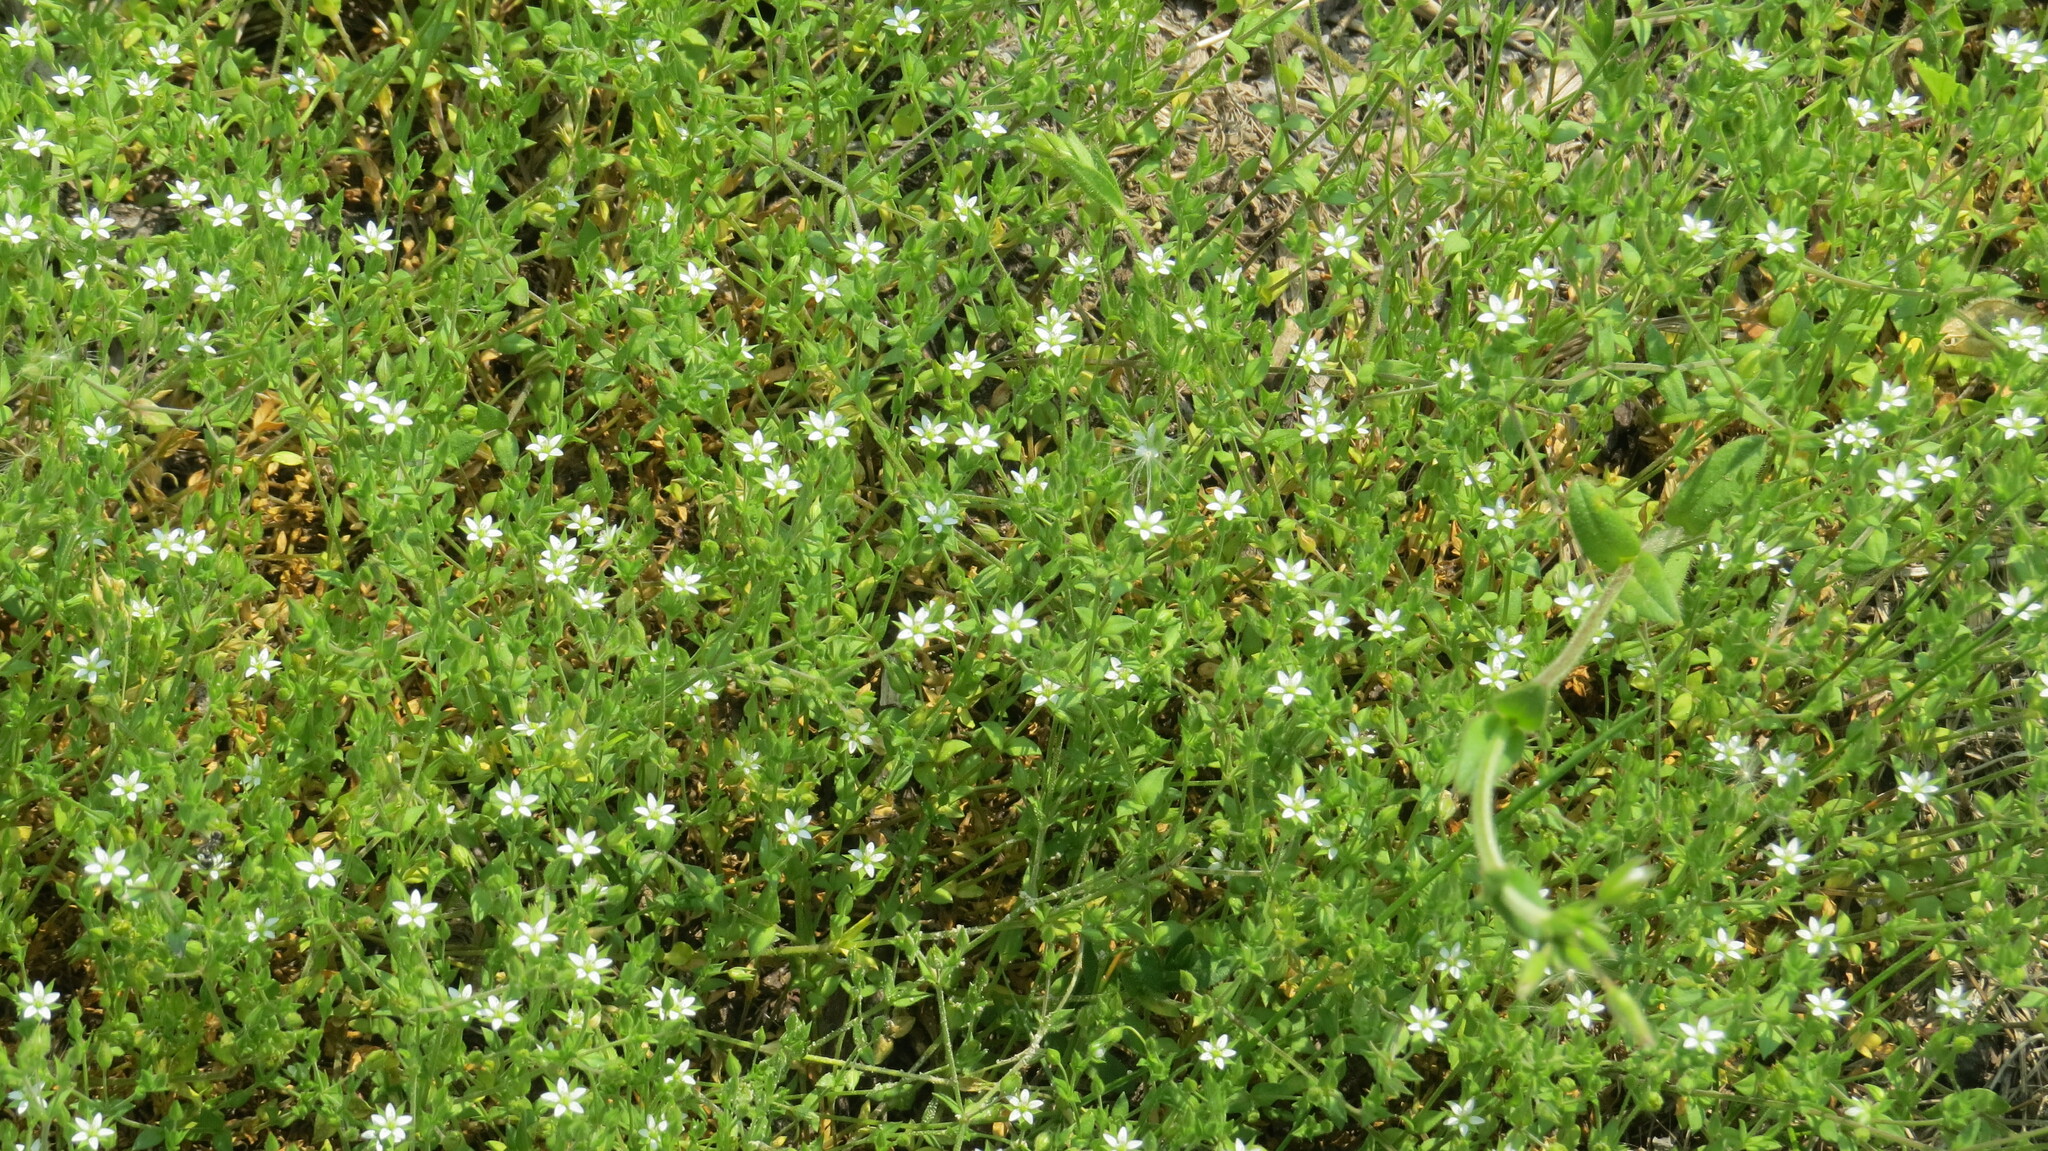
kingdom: Plantae
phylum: Tracheophyta
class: Magnoliopsida
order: Caryophyllales
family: Caryophyllaceae
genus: Arenaria
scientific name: Arenaria serpyllifolia
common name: Thyme-leaved sandwort
